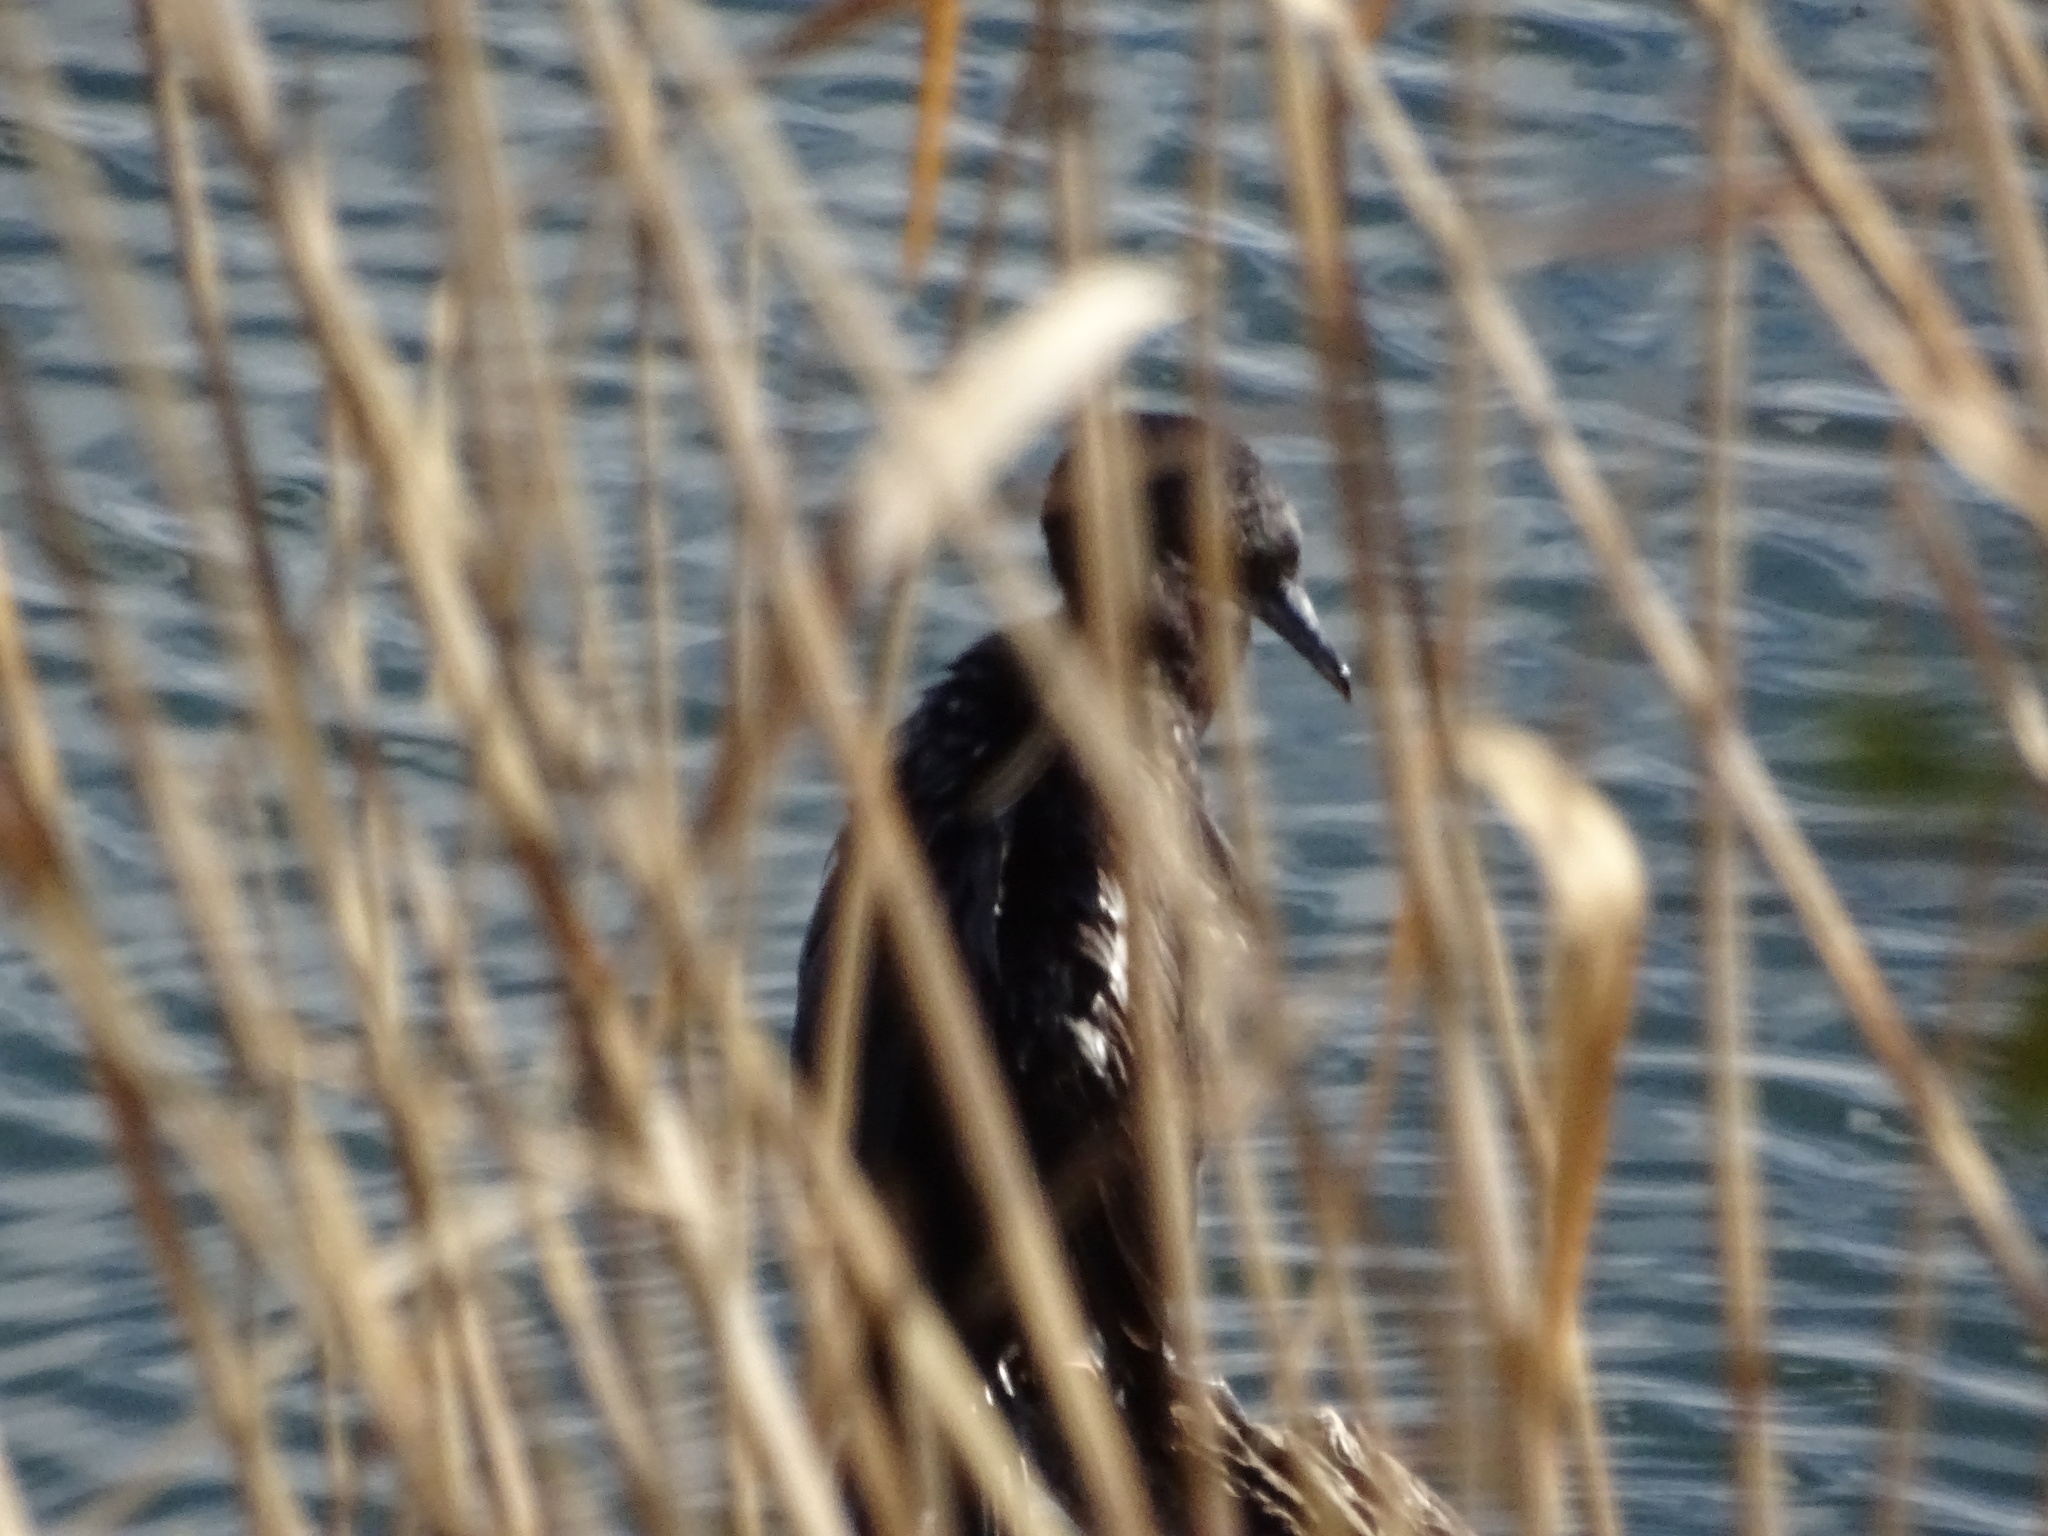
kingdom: Animalia
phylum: Chordata
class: Aves
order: Suliformes
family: Phalacrocoracidae
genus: Phalacrocorax
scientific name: Phalacrocorax brasilianus
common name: Neotropic cormorant
